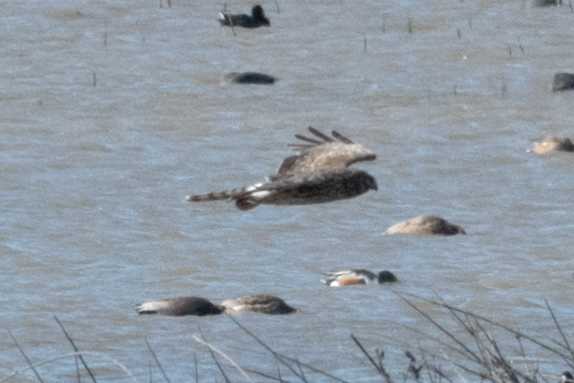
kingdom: Animalia
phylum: Chordata
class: Aves
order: Accipitriformes
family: Accipitridae
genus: Circus
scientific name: Circus cyaneus
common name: Hen harrier
